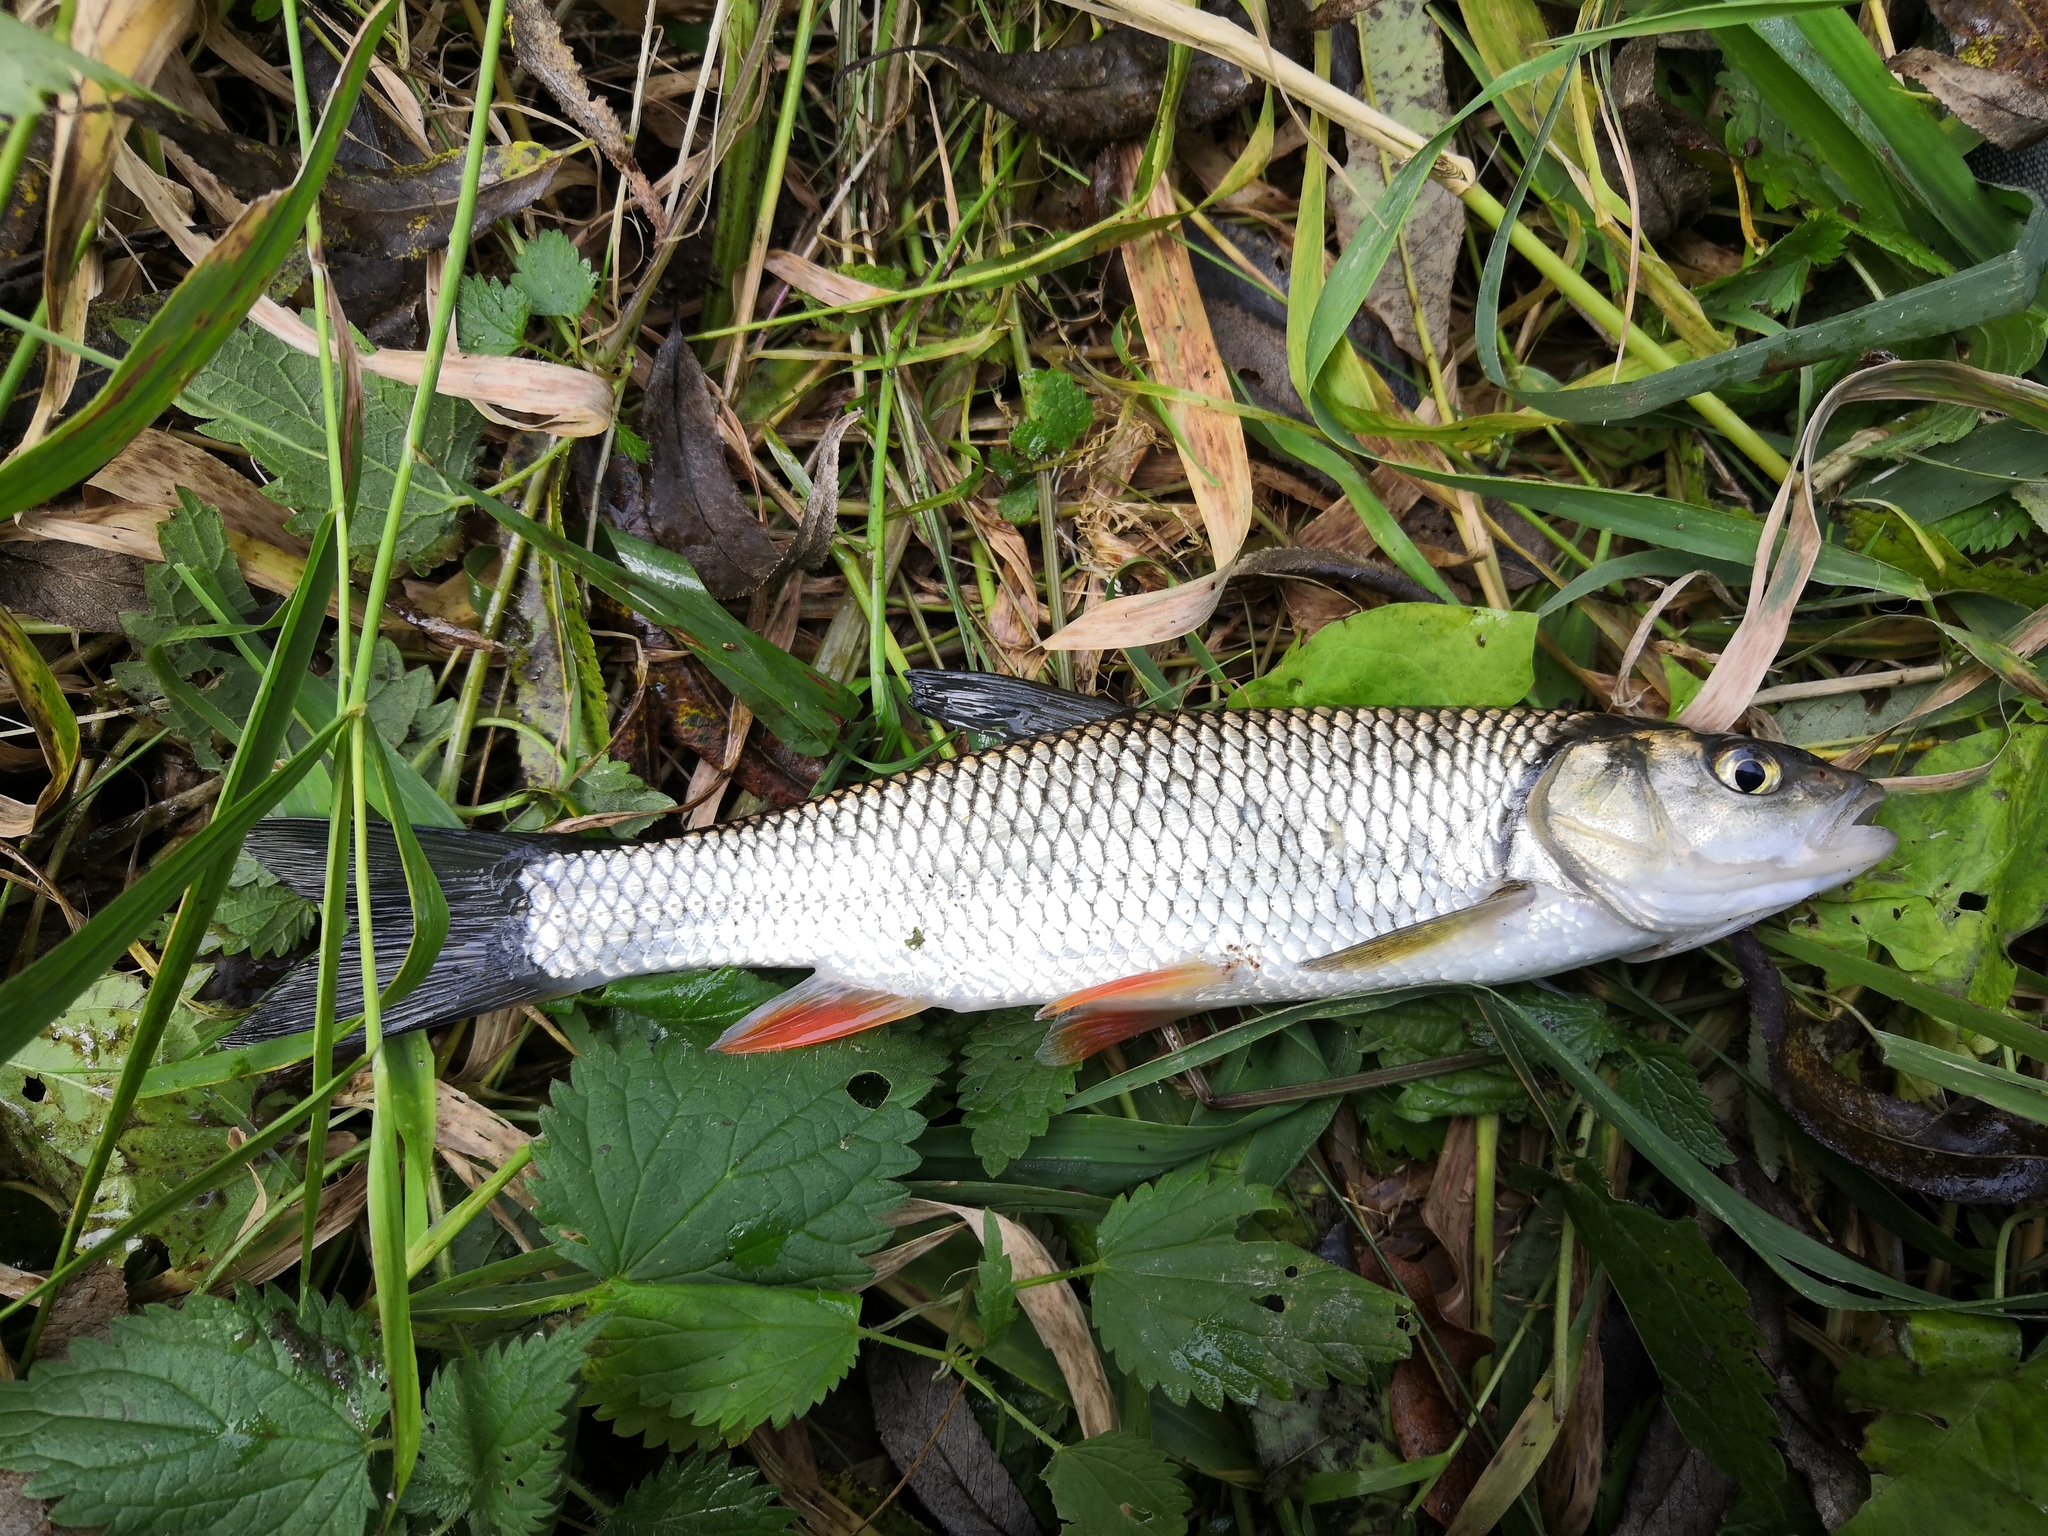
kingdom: Animalia
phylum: Chordata
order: Cypriniformes
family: Cyprinidae
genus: Squalius
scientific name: Squalius cephalus
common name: Chub
